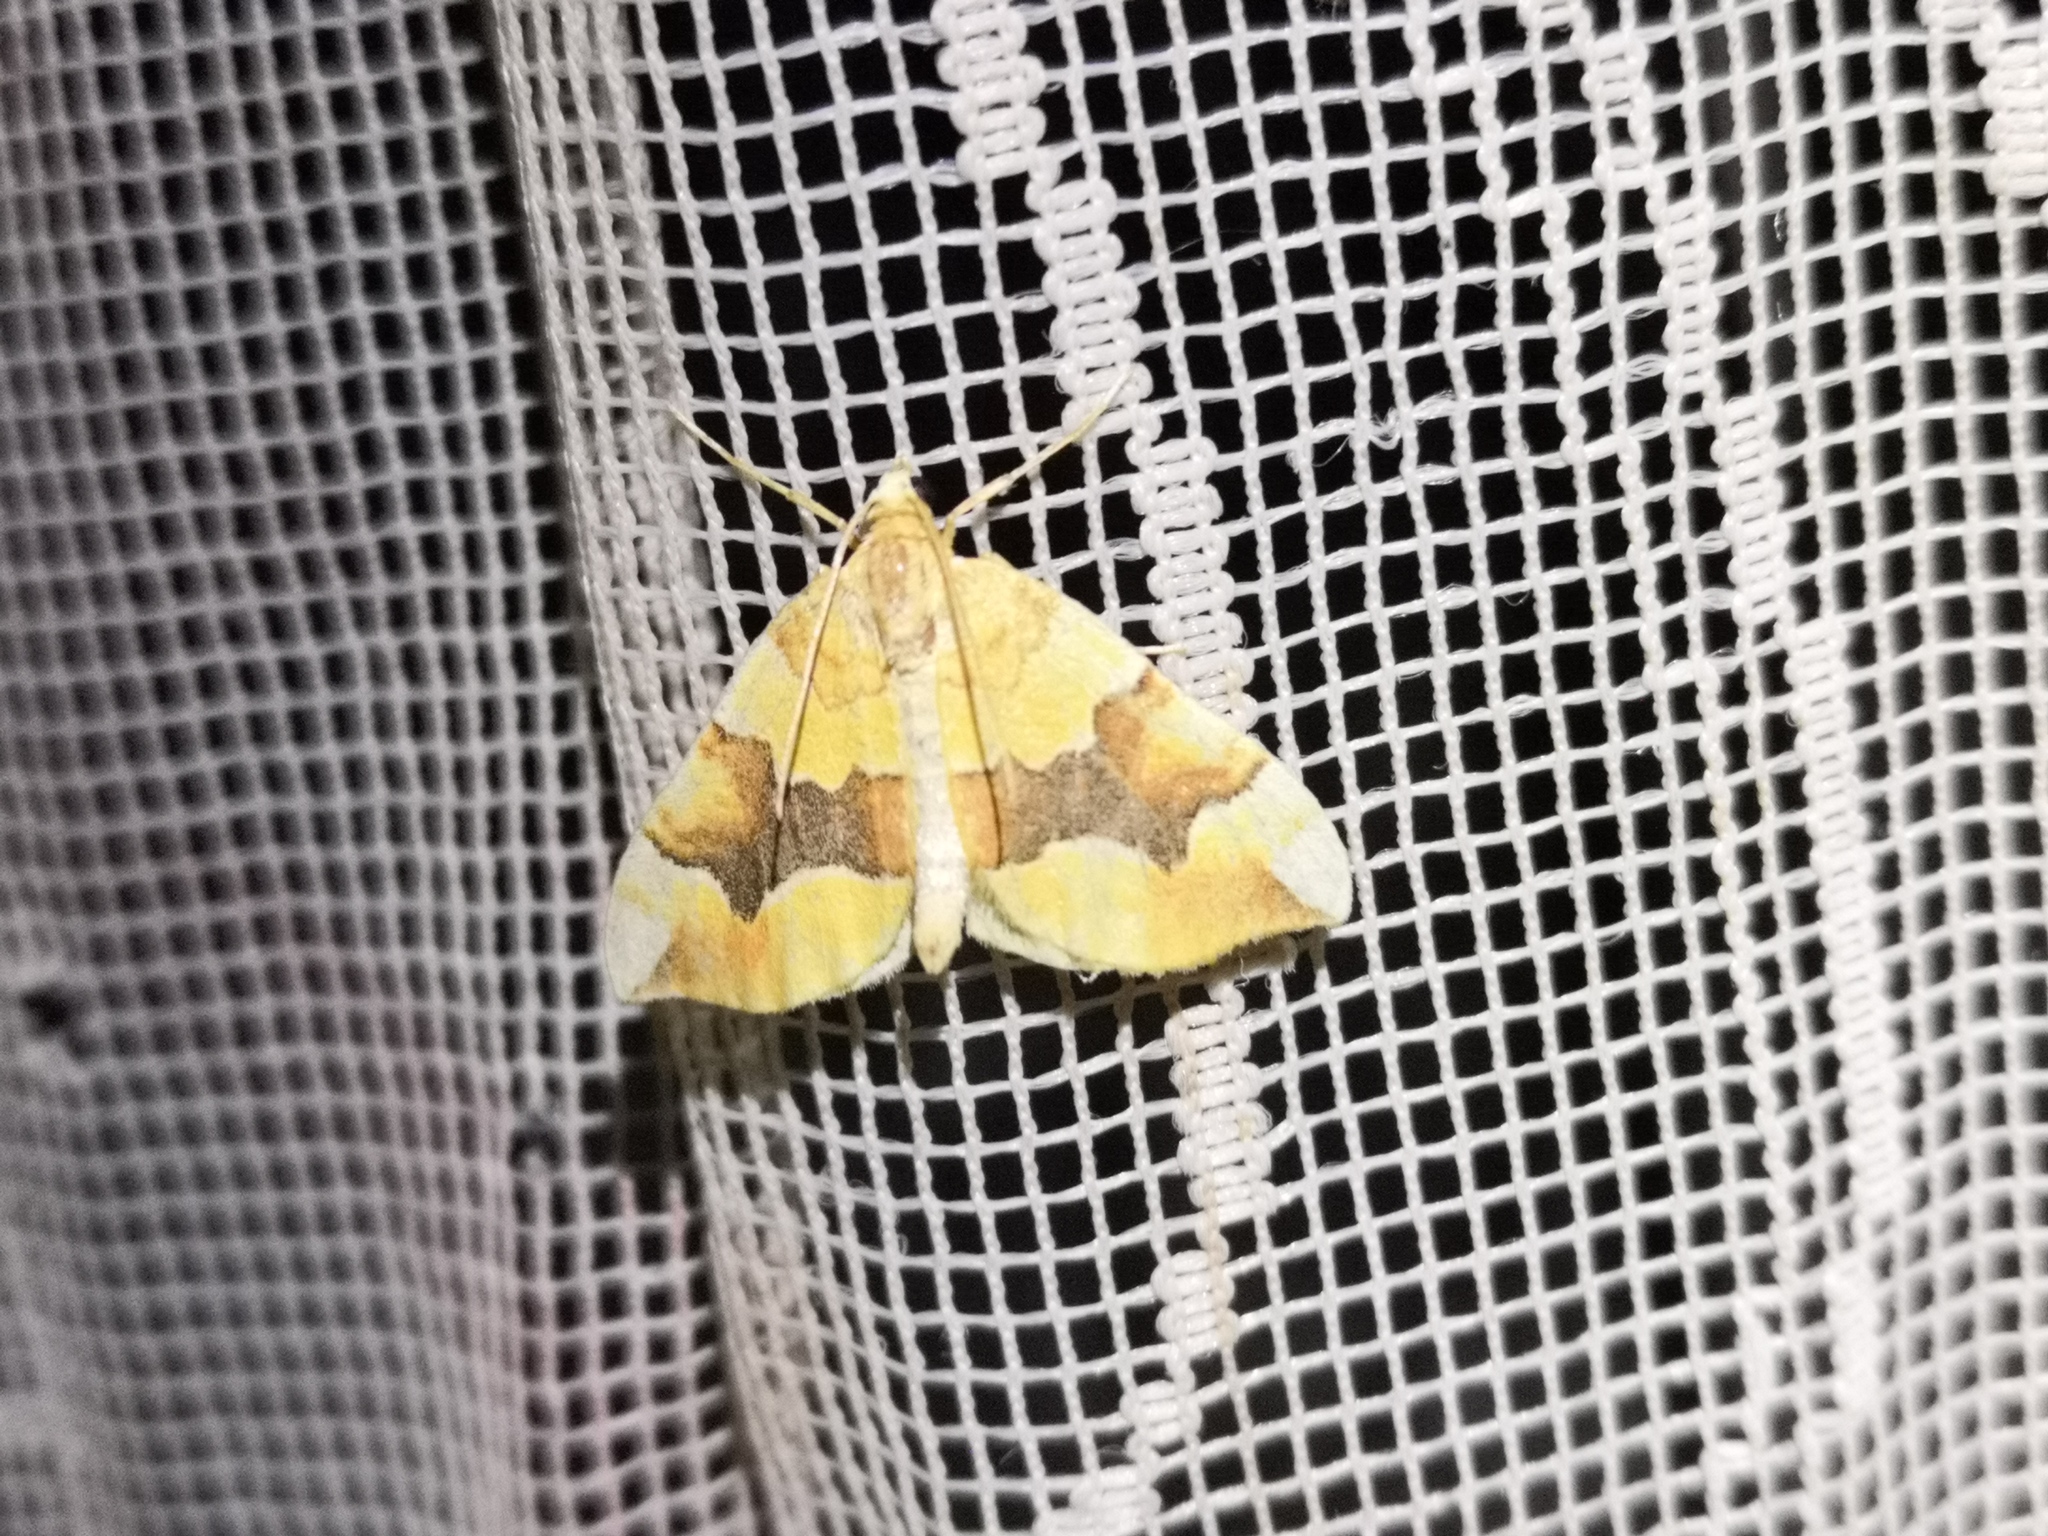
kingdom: Animalia
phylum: Arthropoda
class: Insecta
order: Lepidoptera
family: Geometridae
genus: Cidaria
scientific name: Cidaria fulvata
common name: Barred yellow
